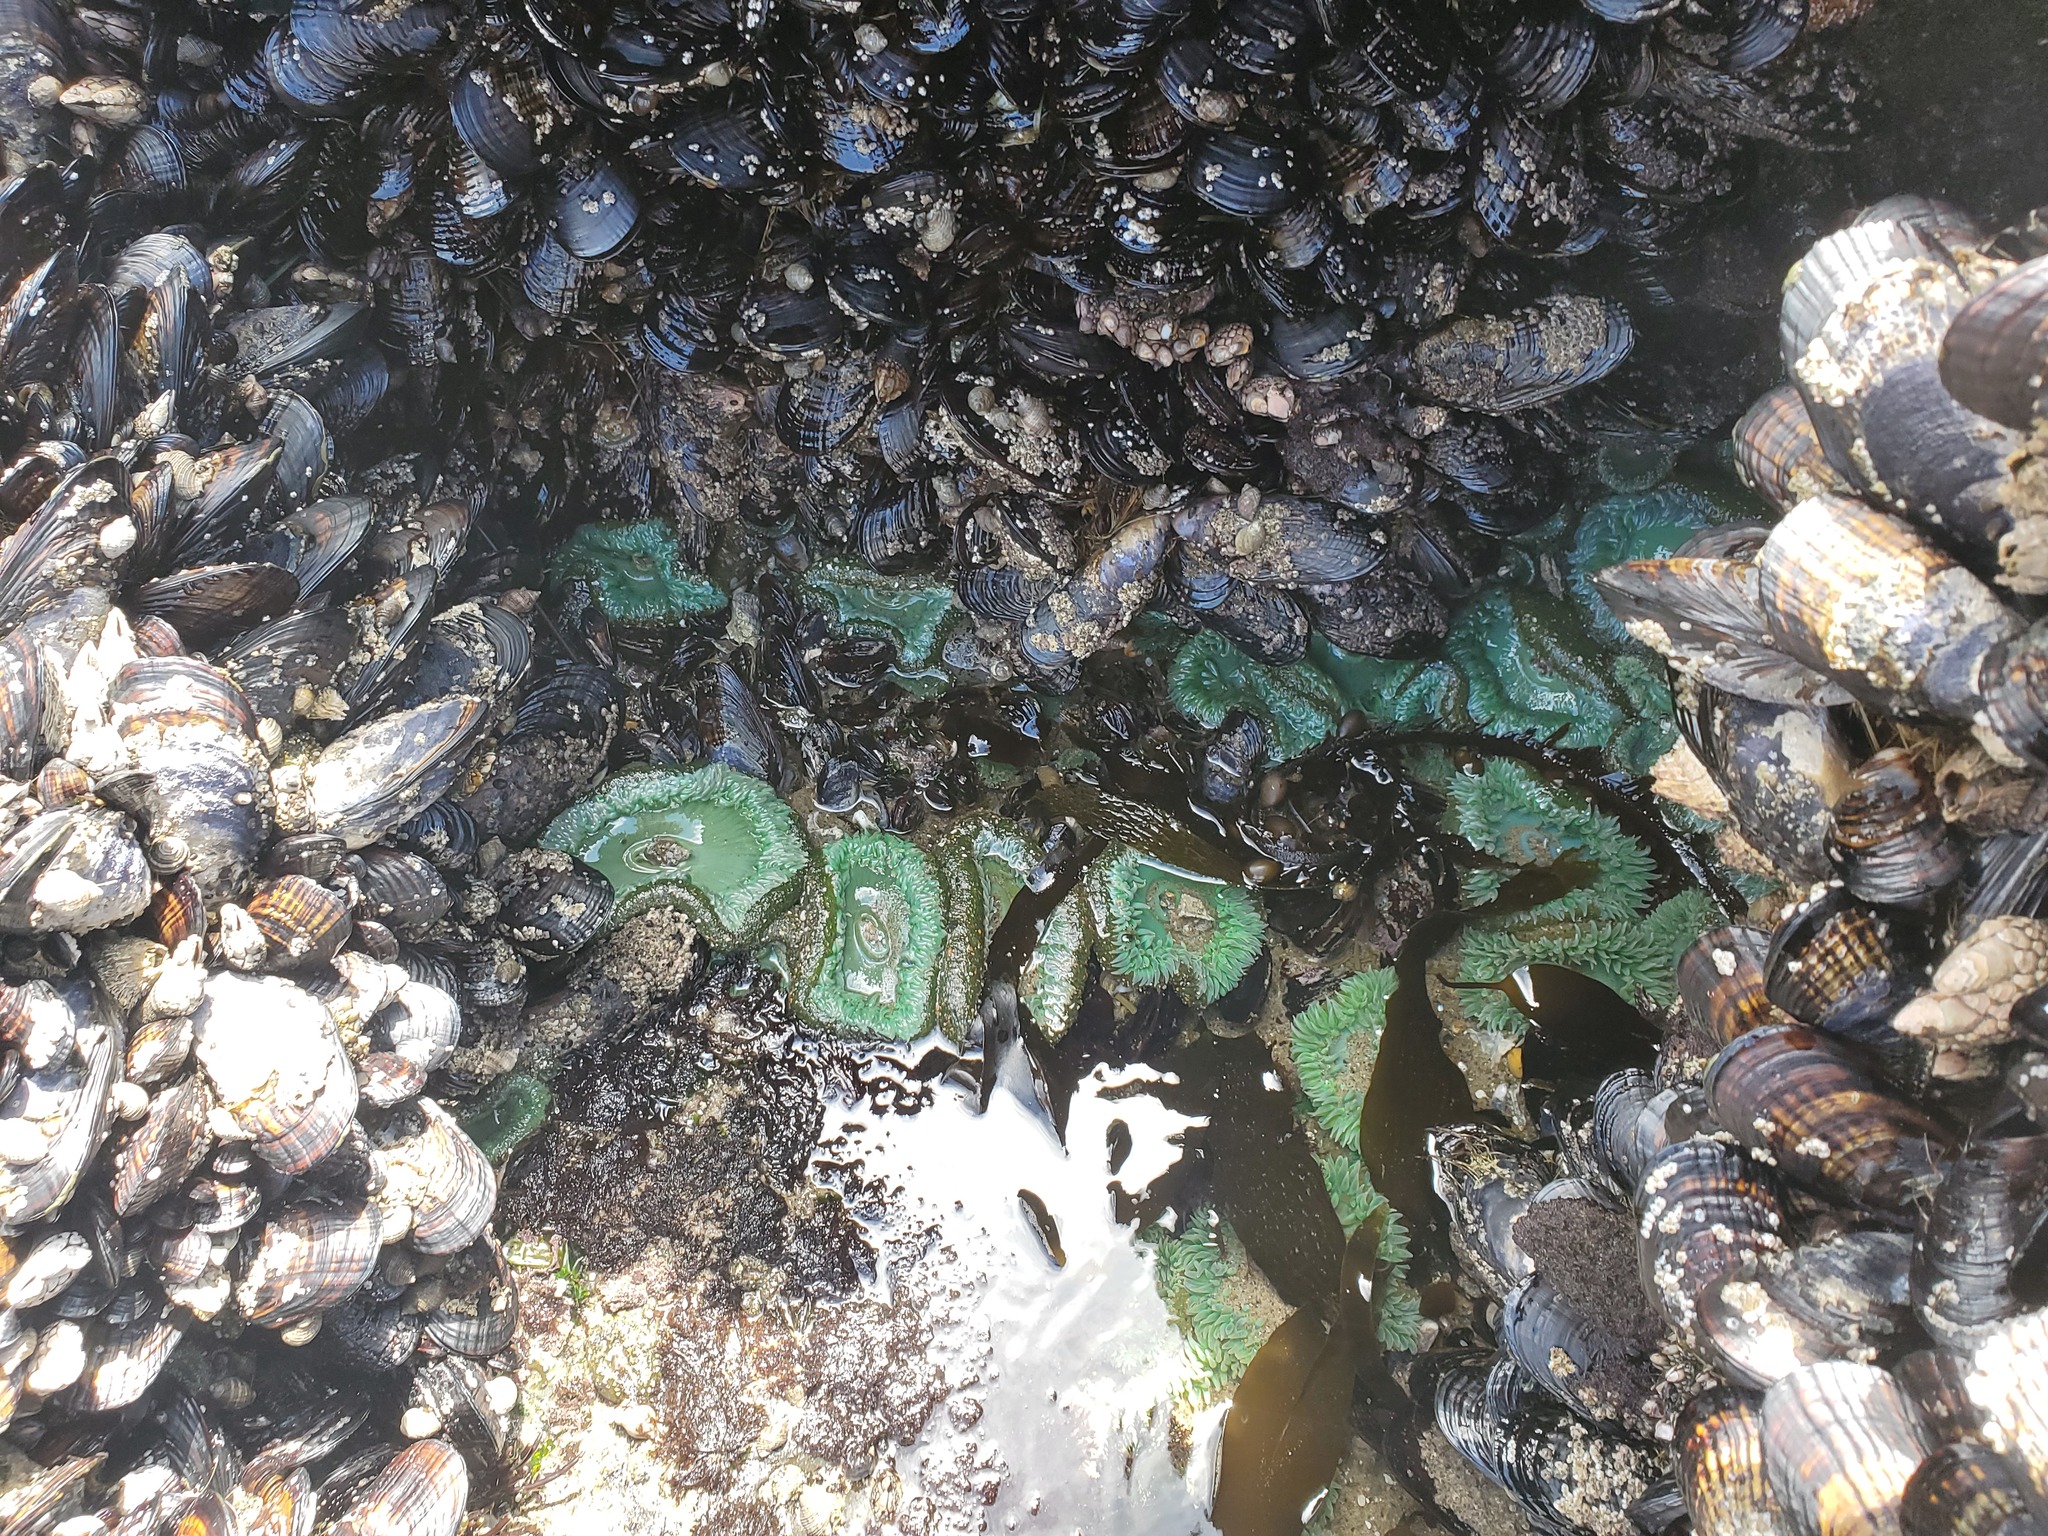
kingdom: Animalia
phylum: Cnidaria
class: Anthozoa
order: Actiniaria
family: Actiniidae
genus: Anthopleura
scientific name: Anthopleura xanthogrammica
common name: Giant green anemone
